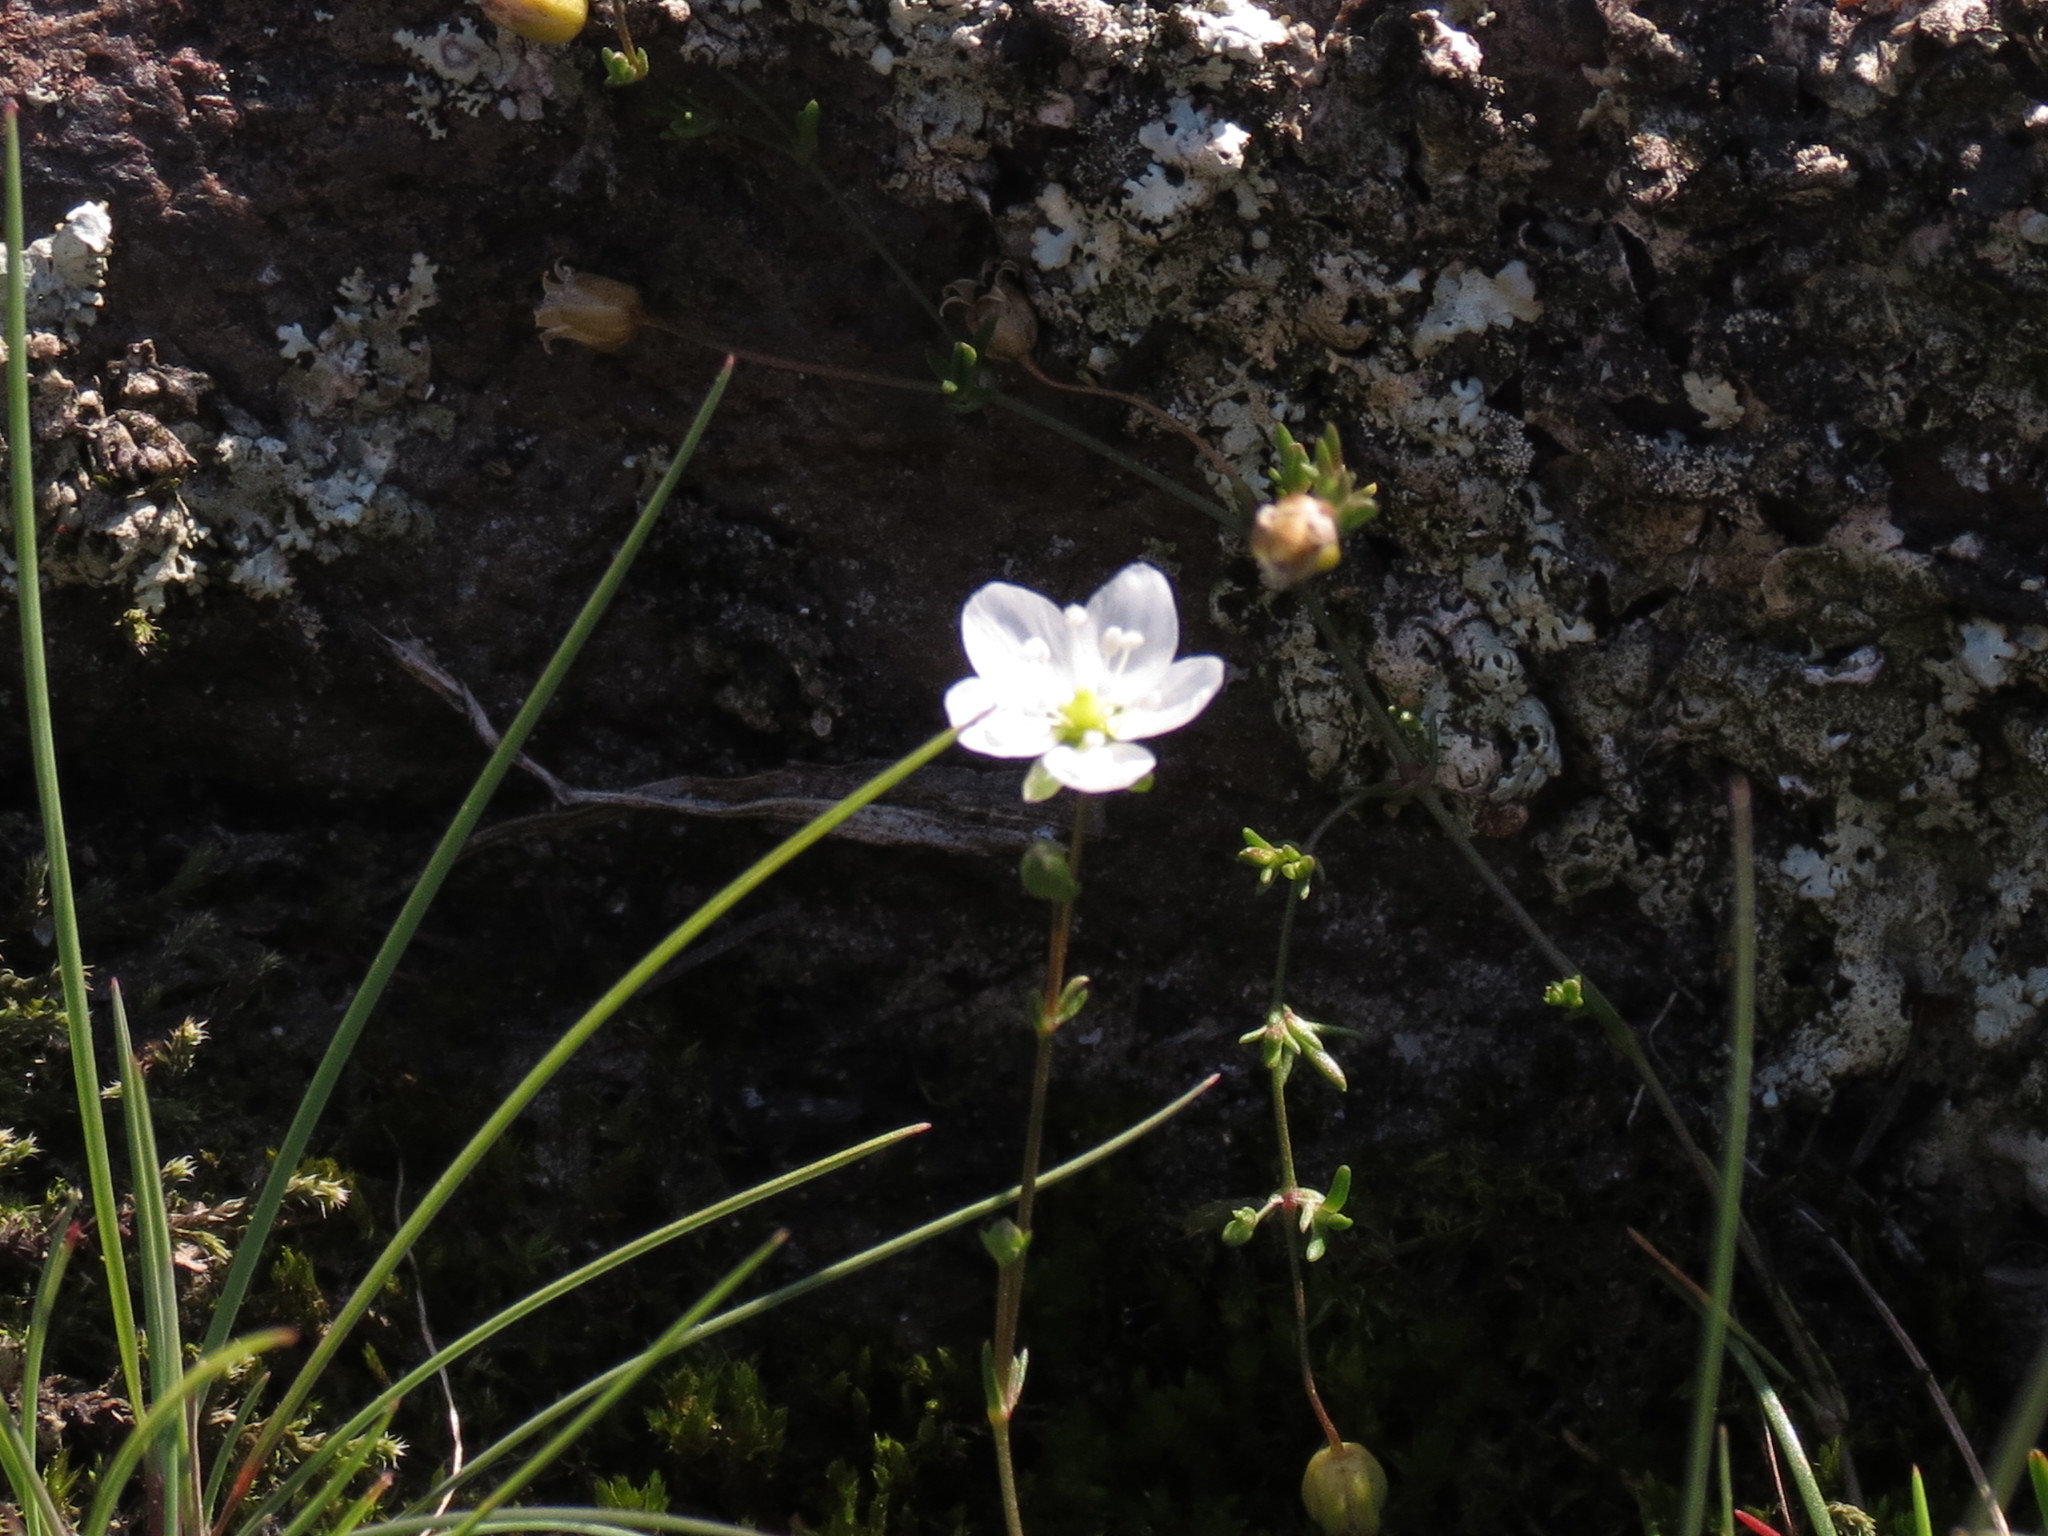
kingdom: Plantae
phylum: Tracheophyta
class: Magnoliopsida
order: Caryophyllales
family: Caryophyllaceae
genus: Sagina
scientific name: Sagina nodosa
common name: Knotted pearlwort
